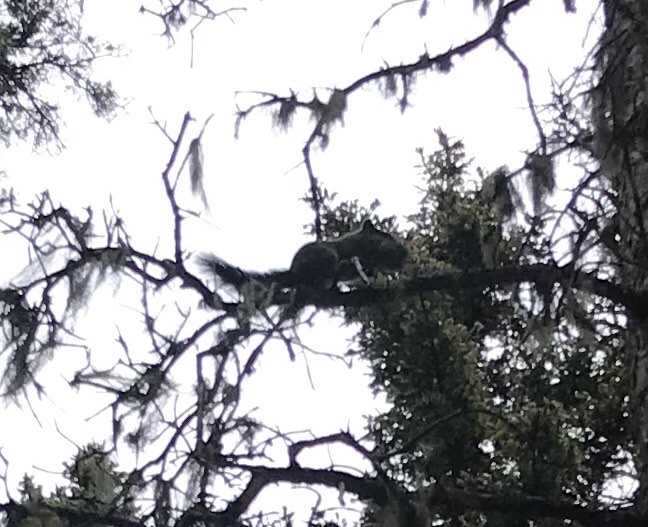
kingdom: Animalia
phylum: Chordata
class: Mammalia
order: Rodentia
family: Sciuridae
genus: Tamiasciurus
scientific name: Tamiasciurus hudsonicus
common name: Red squirrel
